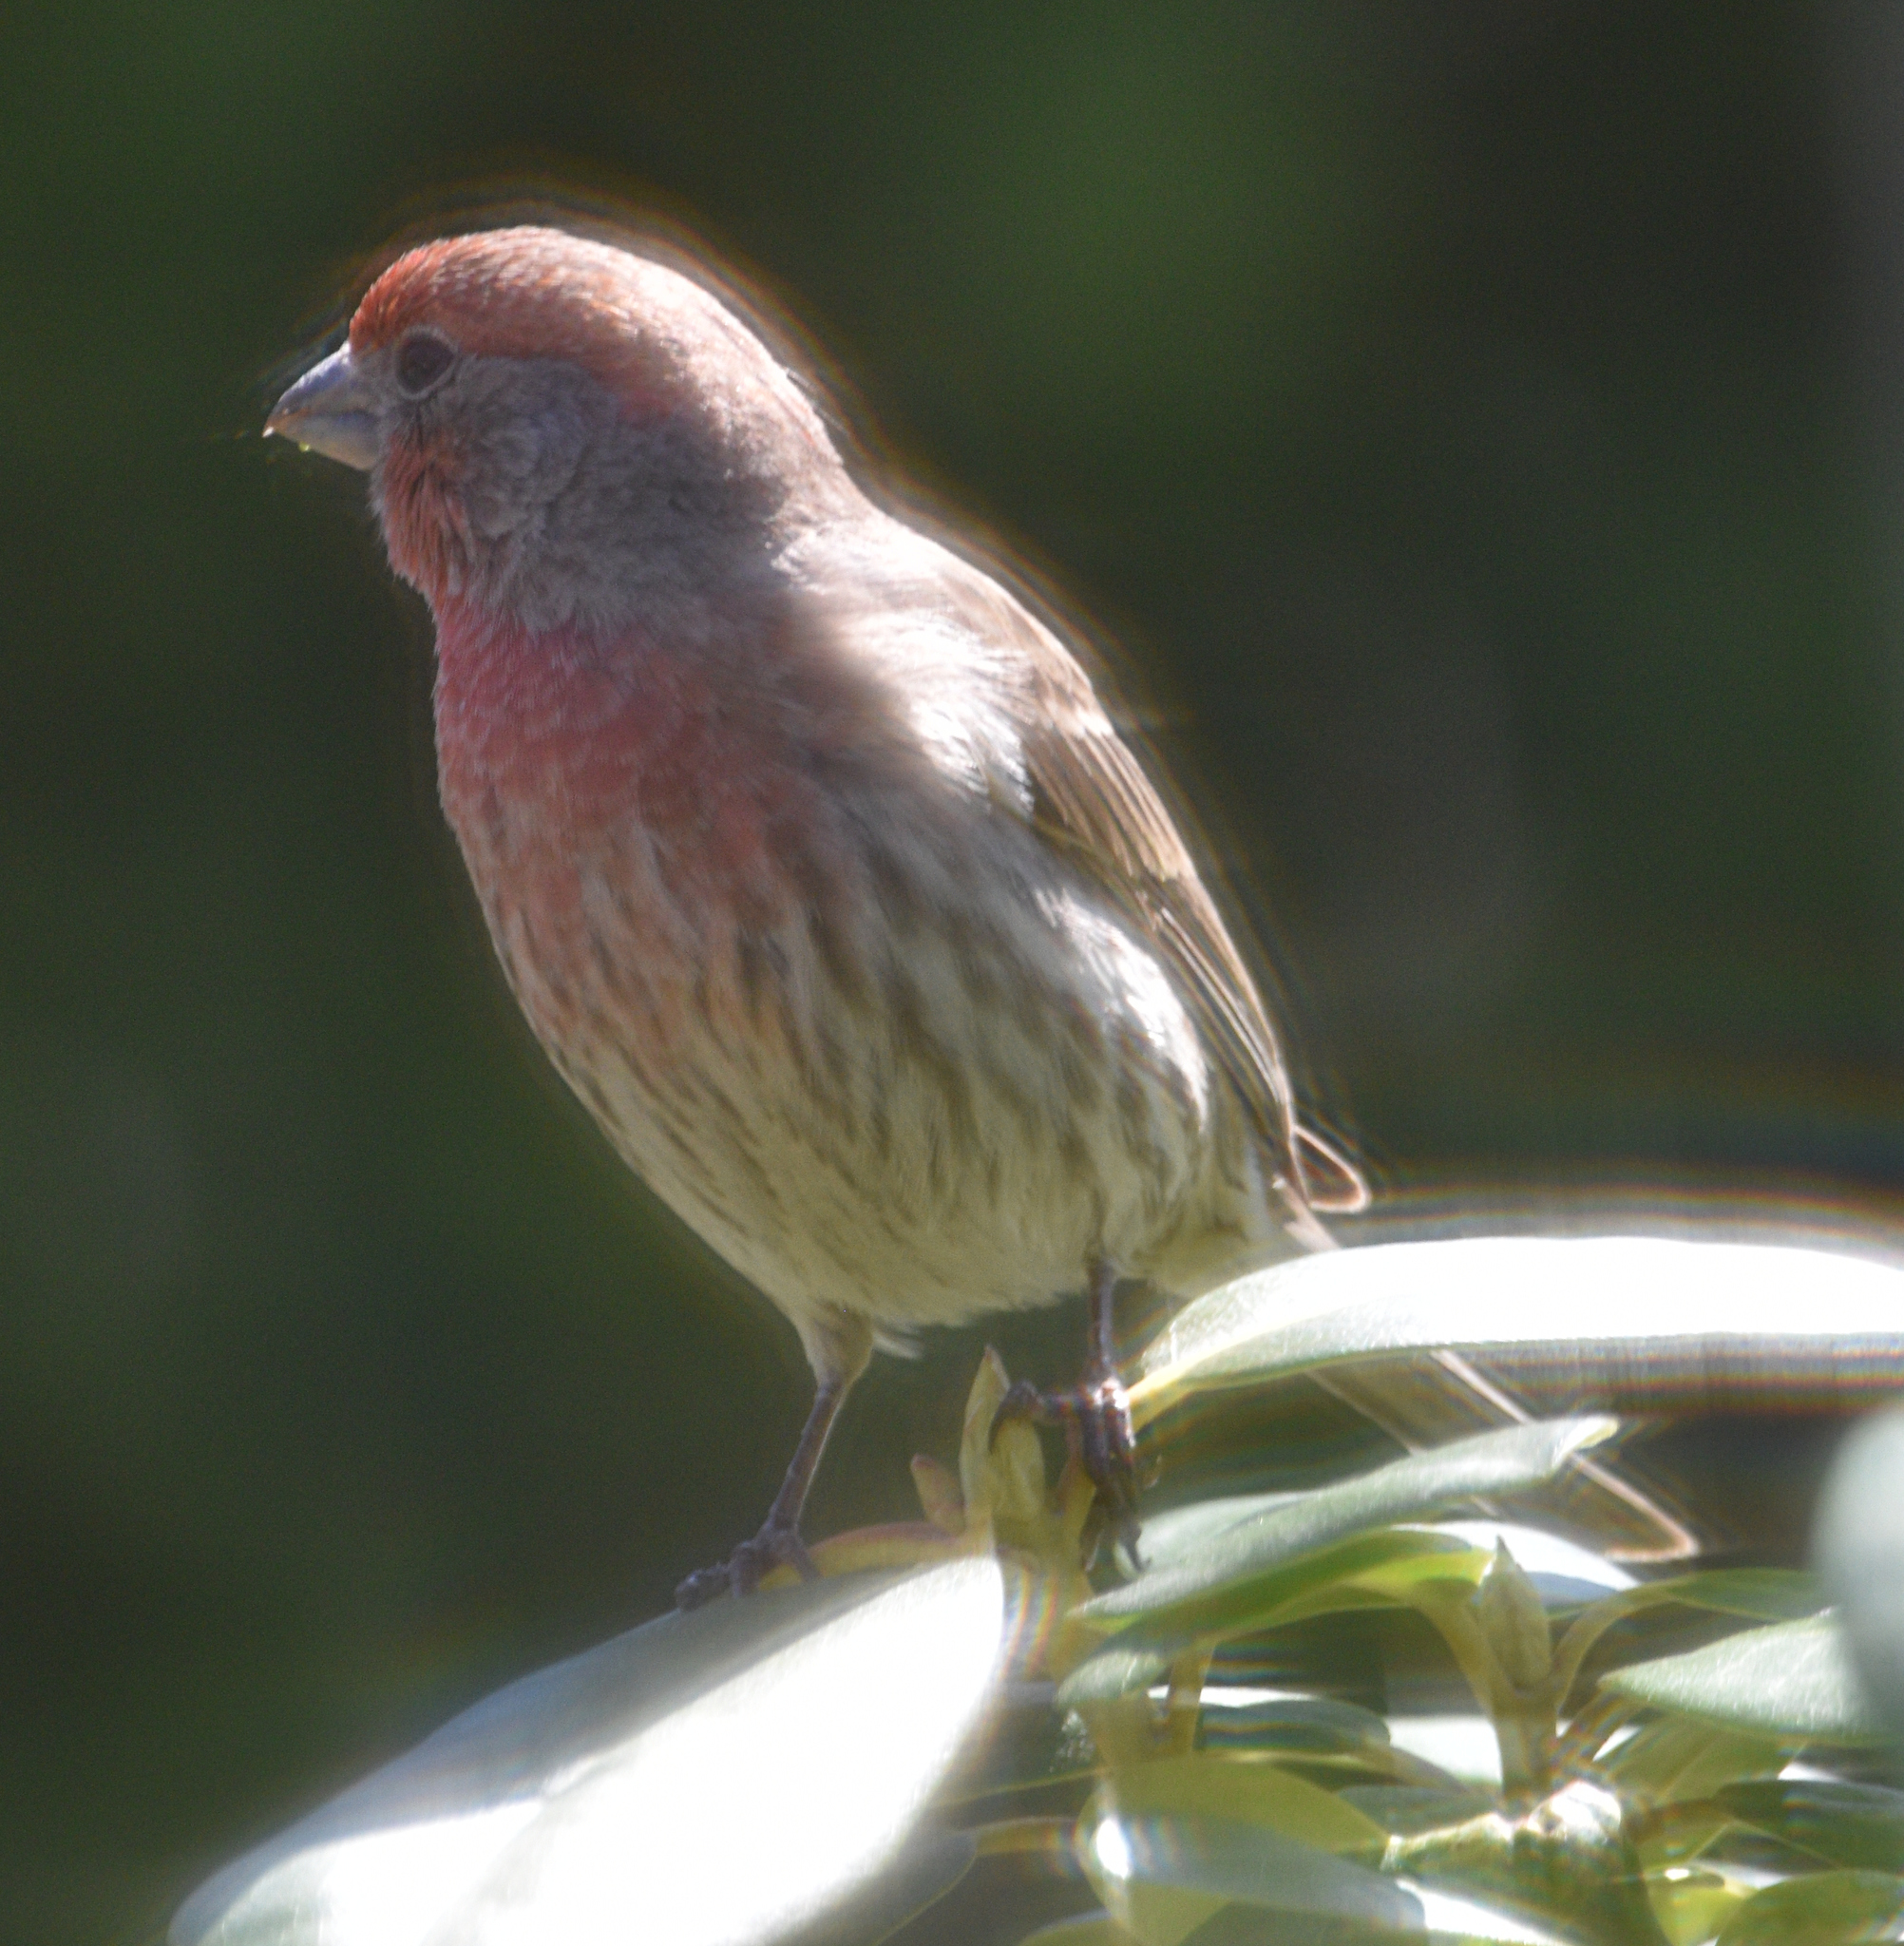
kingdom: Animalia
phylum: Chordata
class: Aves
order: Passeriformes
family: Fringillidae
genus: Haemorhous
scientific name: Haemorhous mexicanus
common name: House finch
